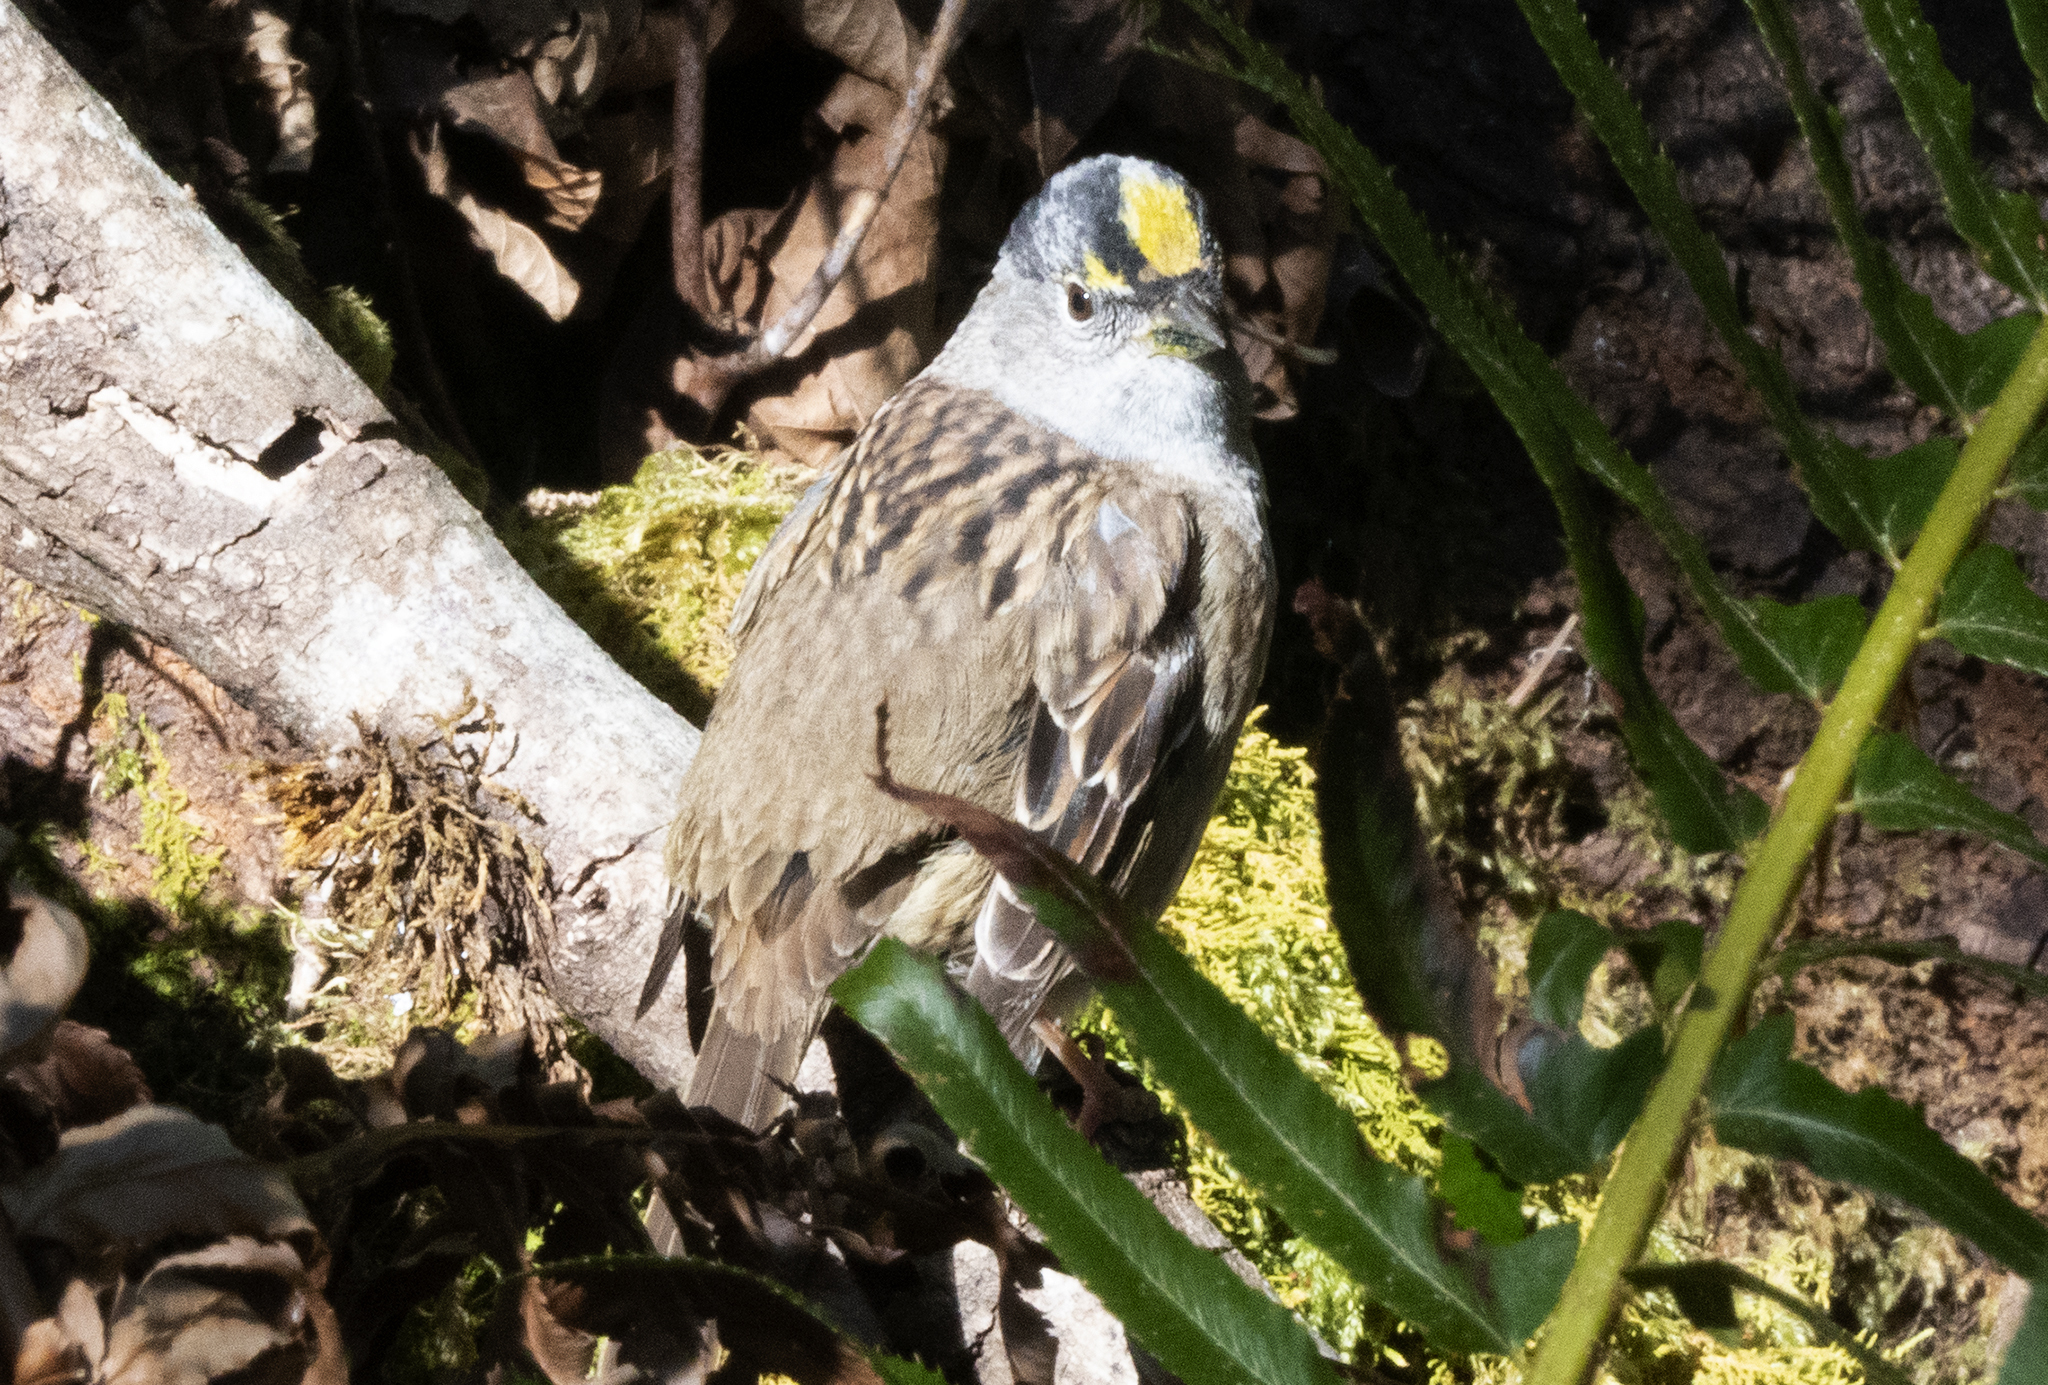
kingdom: Animalia
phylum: Chordata
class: Aves
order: Passeriformes
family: Passerellidae
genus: Zonotrichia
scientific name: Zonotrichia atricapilla
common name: Golden-crowned sparrow
